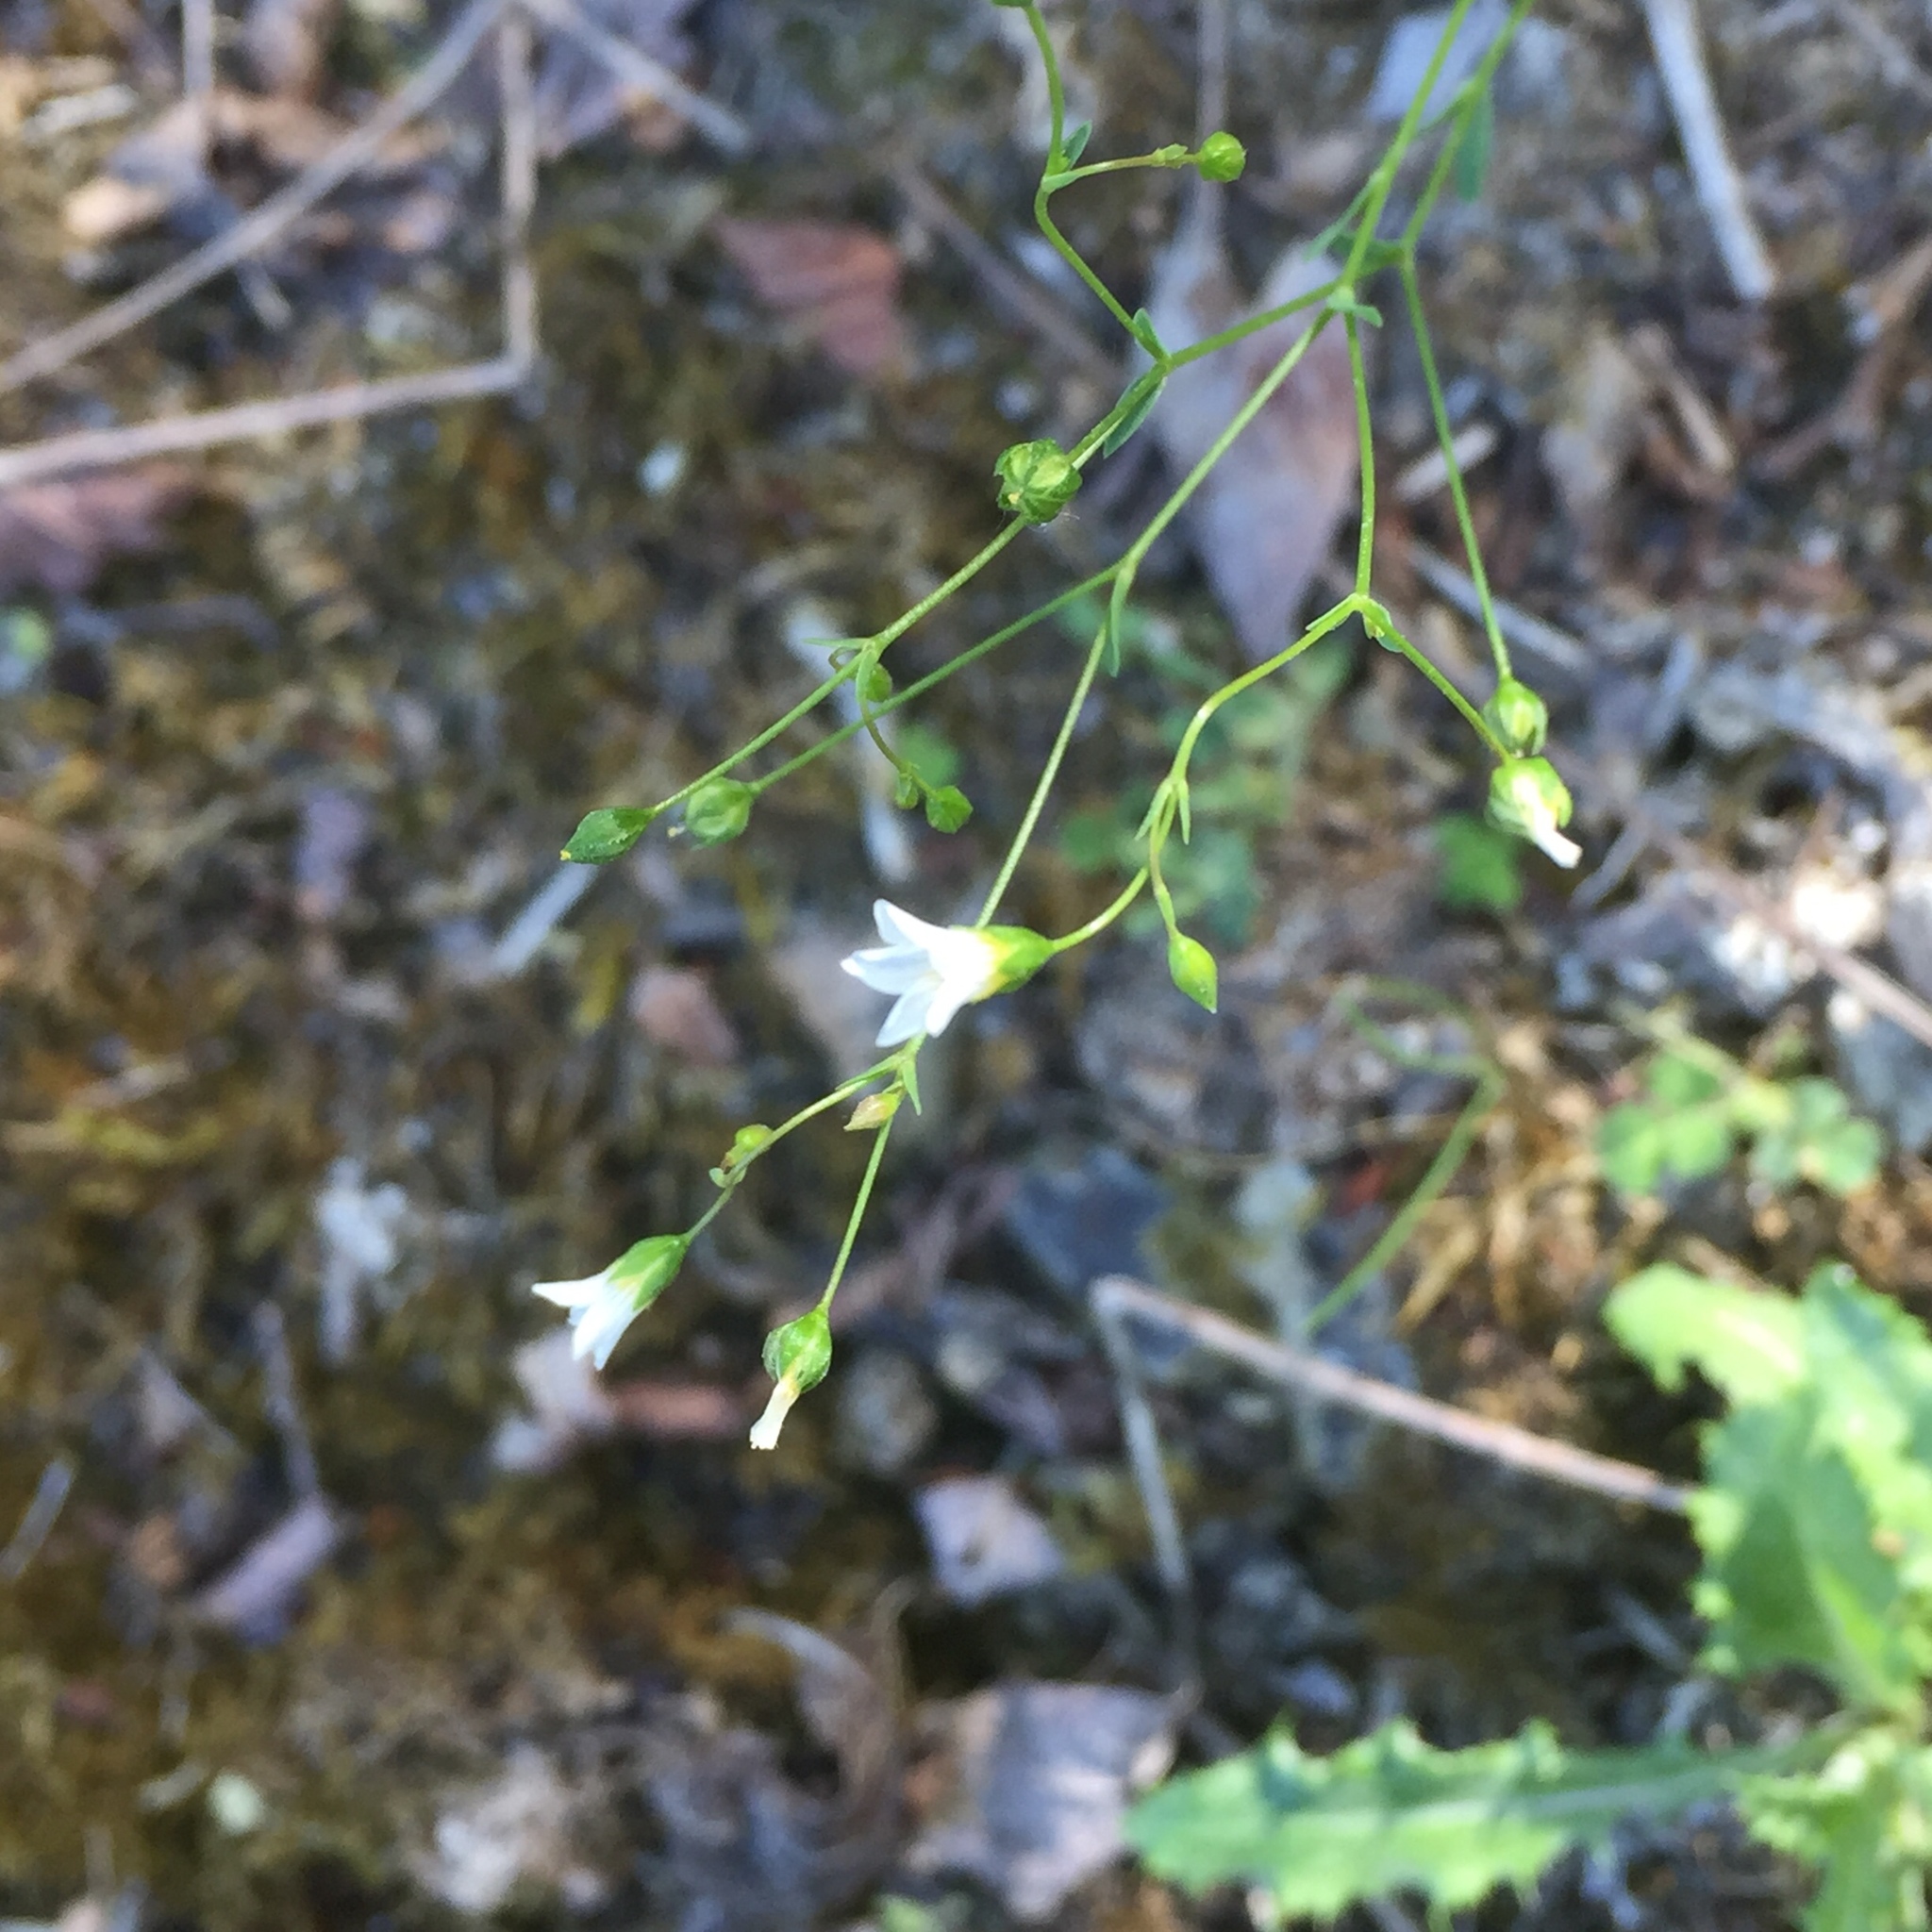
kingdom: Plantae
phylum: Tracheophyta
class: Magnoliopsida
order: Malpighiales
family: Linaceae
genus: Linum
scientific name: Linum catharticum
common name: Fairy flax
